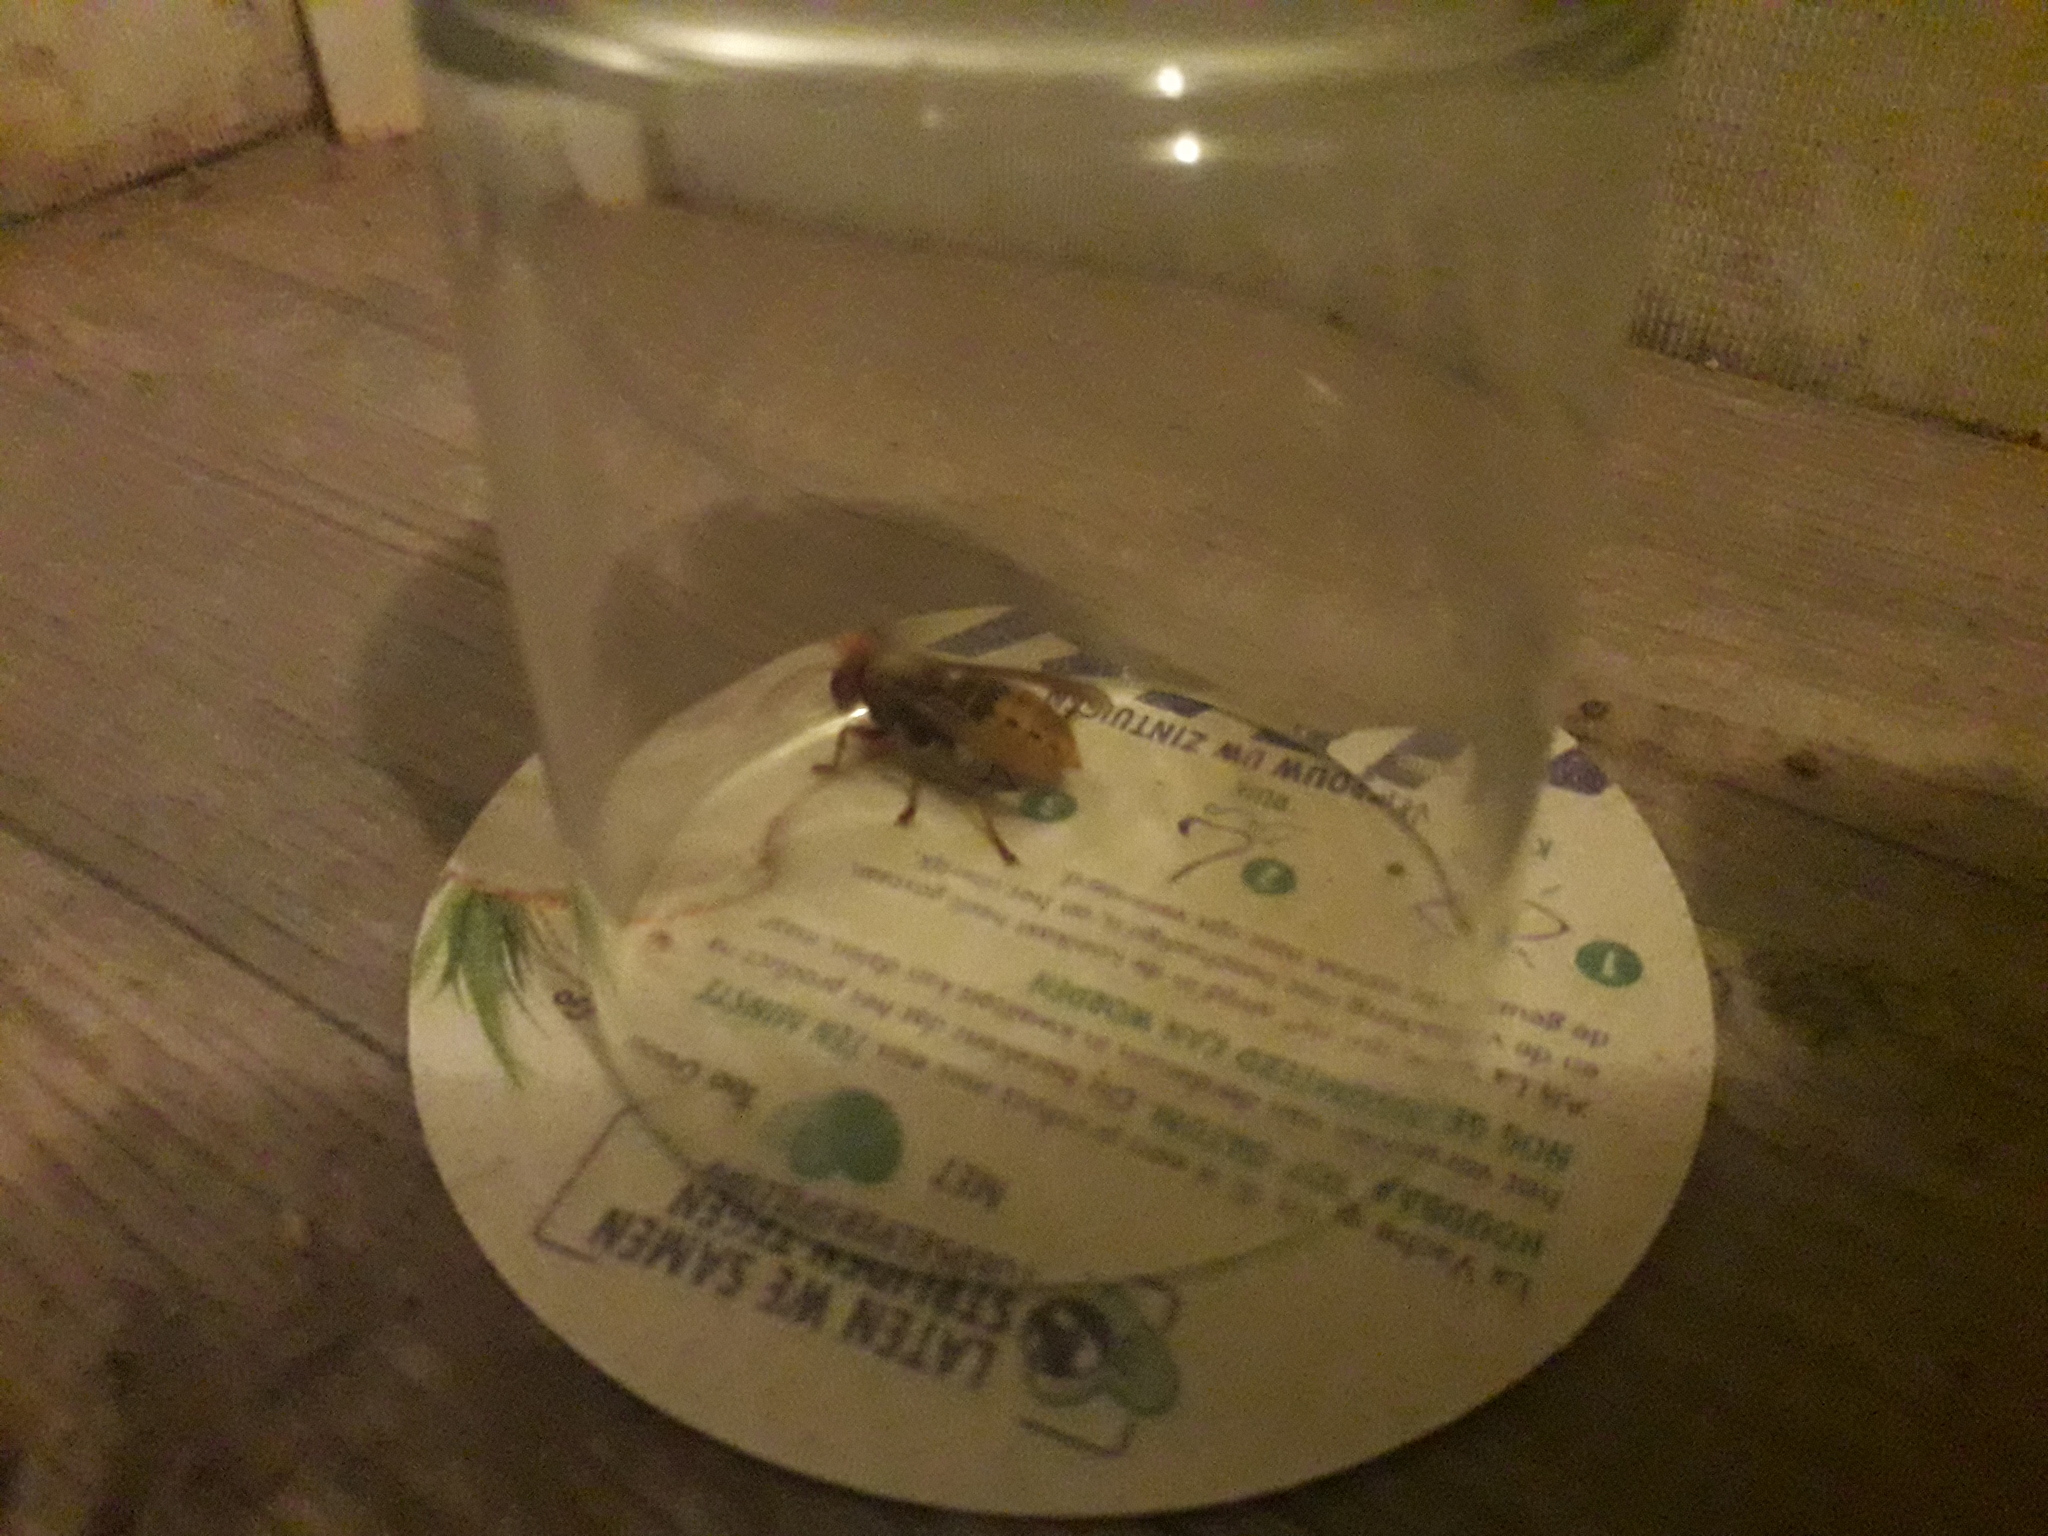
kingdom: Animalia
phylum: Arthropoda
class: Insecta
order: Hymenoptera
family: Vespidae
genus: Vespa
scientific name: Vespa crabro
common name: Hornet
